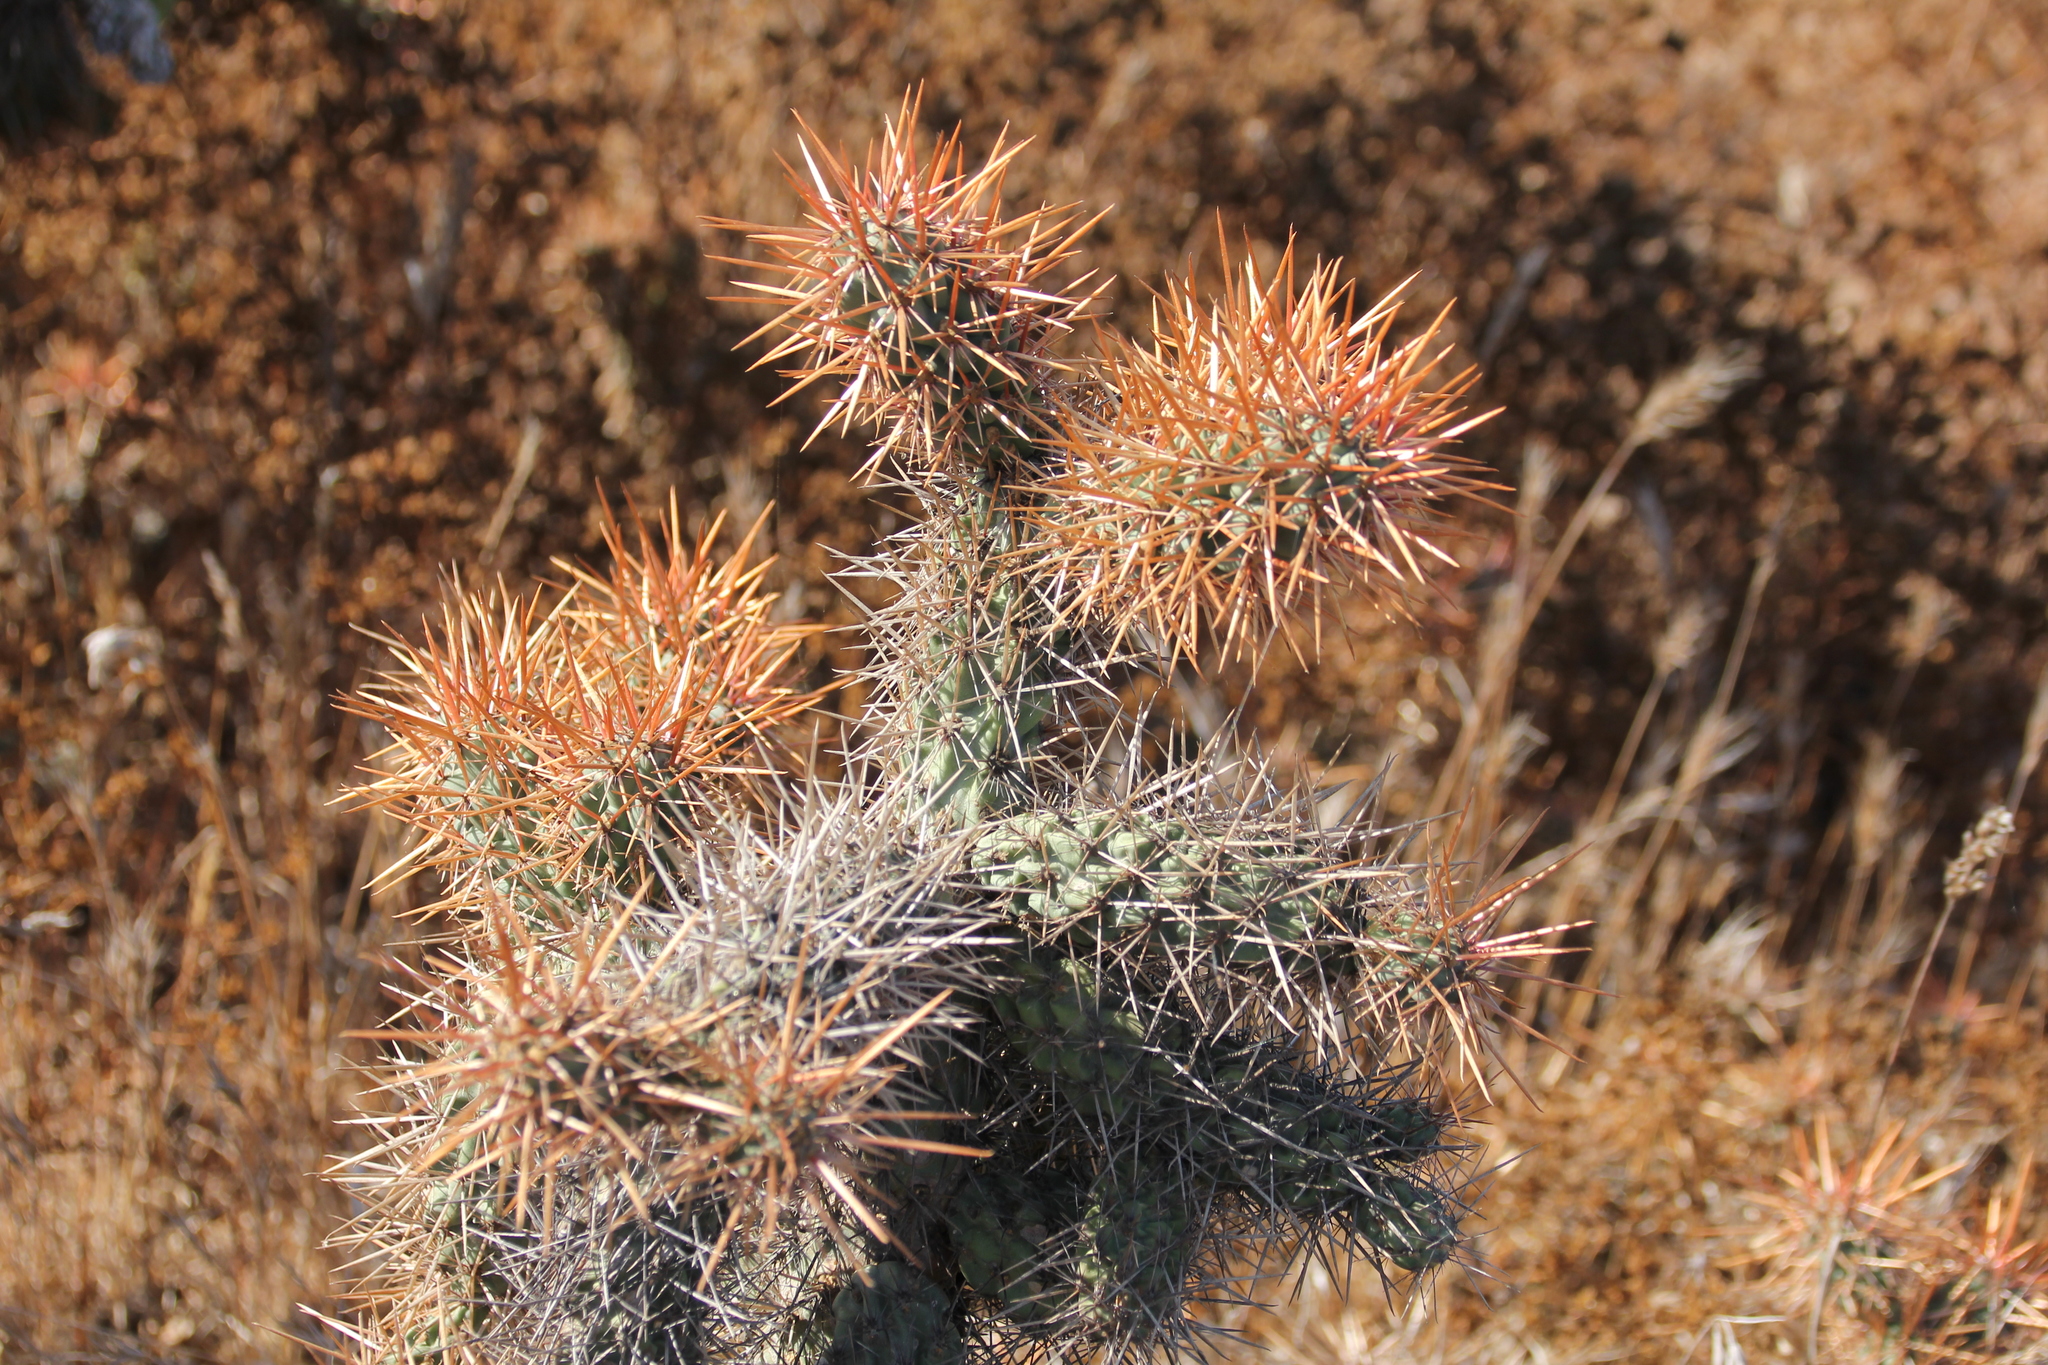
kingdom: Plantae
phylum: Tracheophyta
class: Magnoliopsida
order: Caryophyllales
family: Cactaceae
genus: Cylindropuntia
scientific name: Cylindropuntia prolifera
